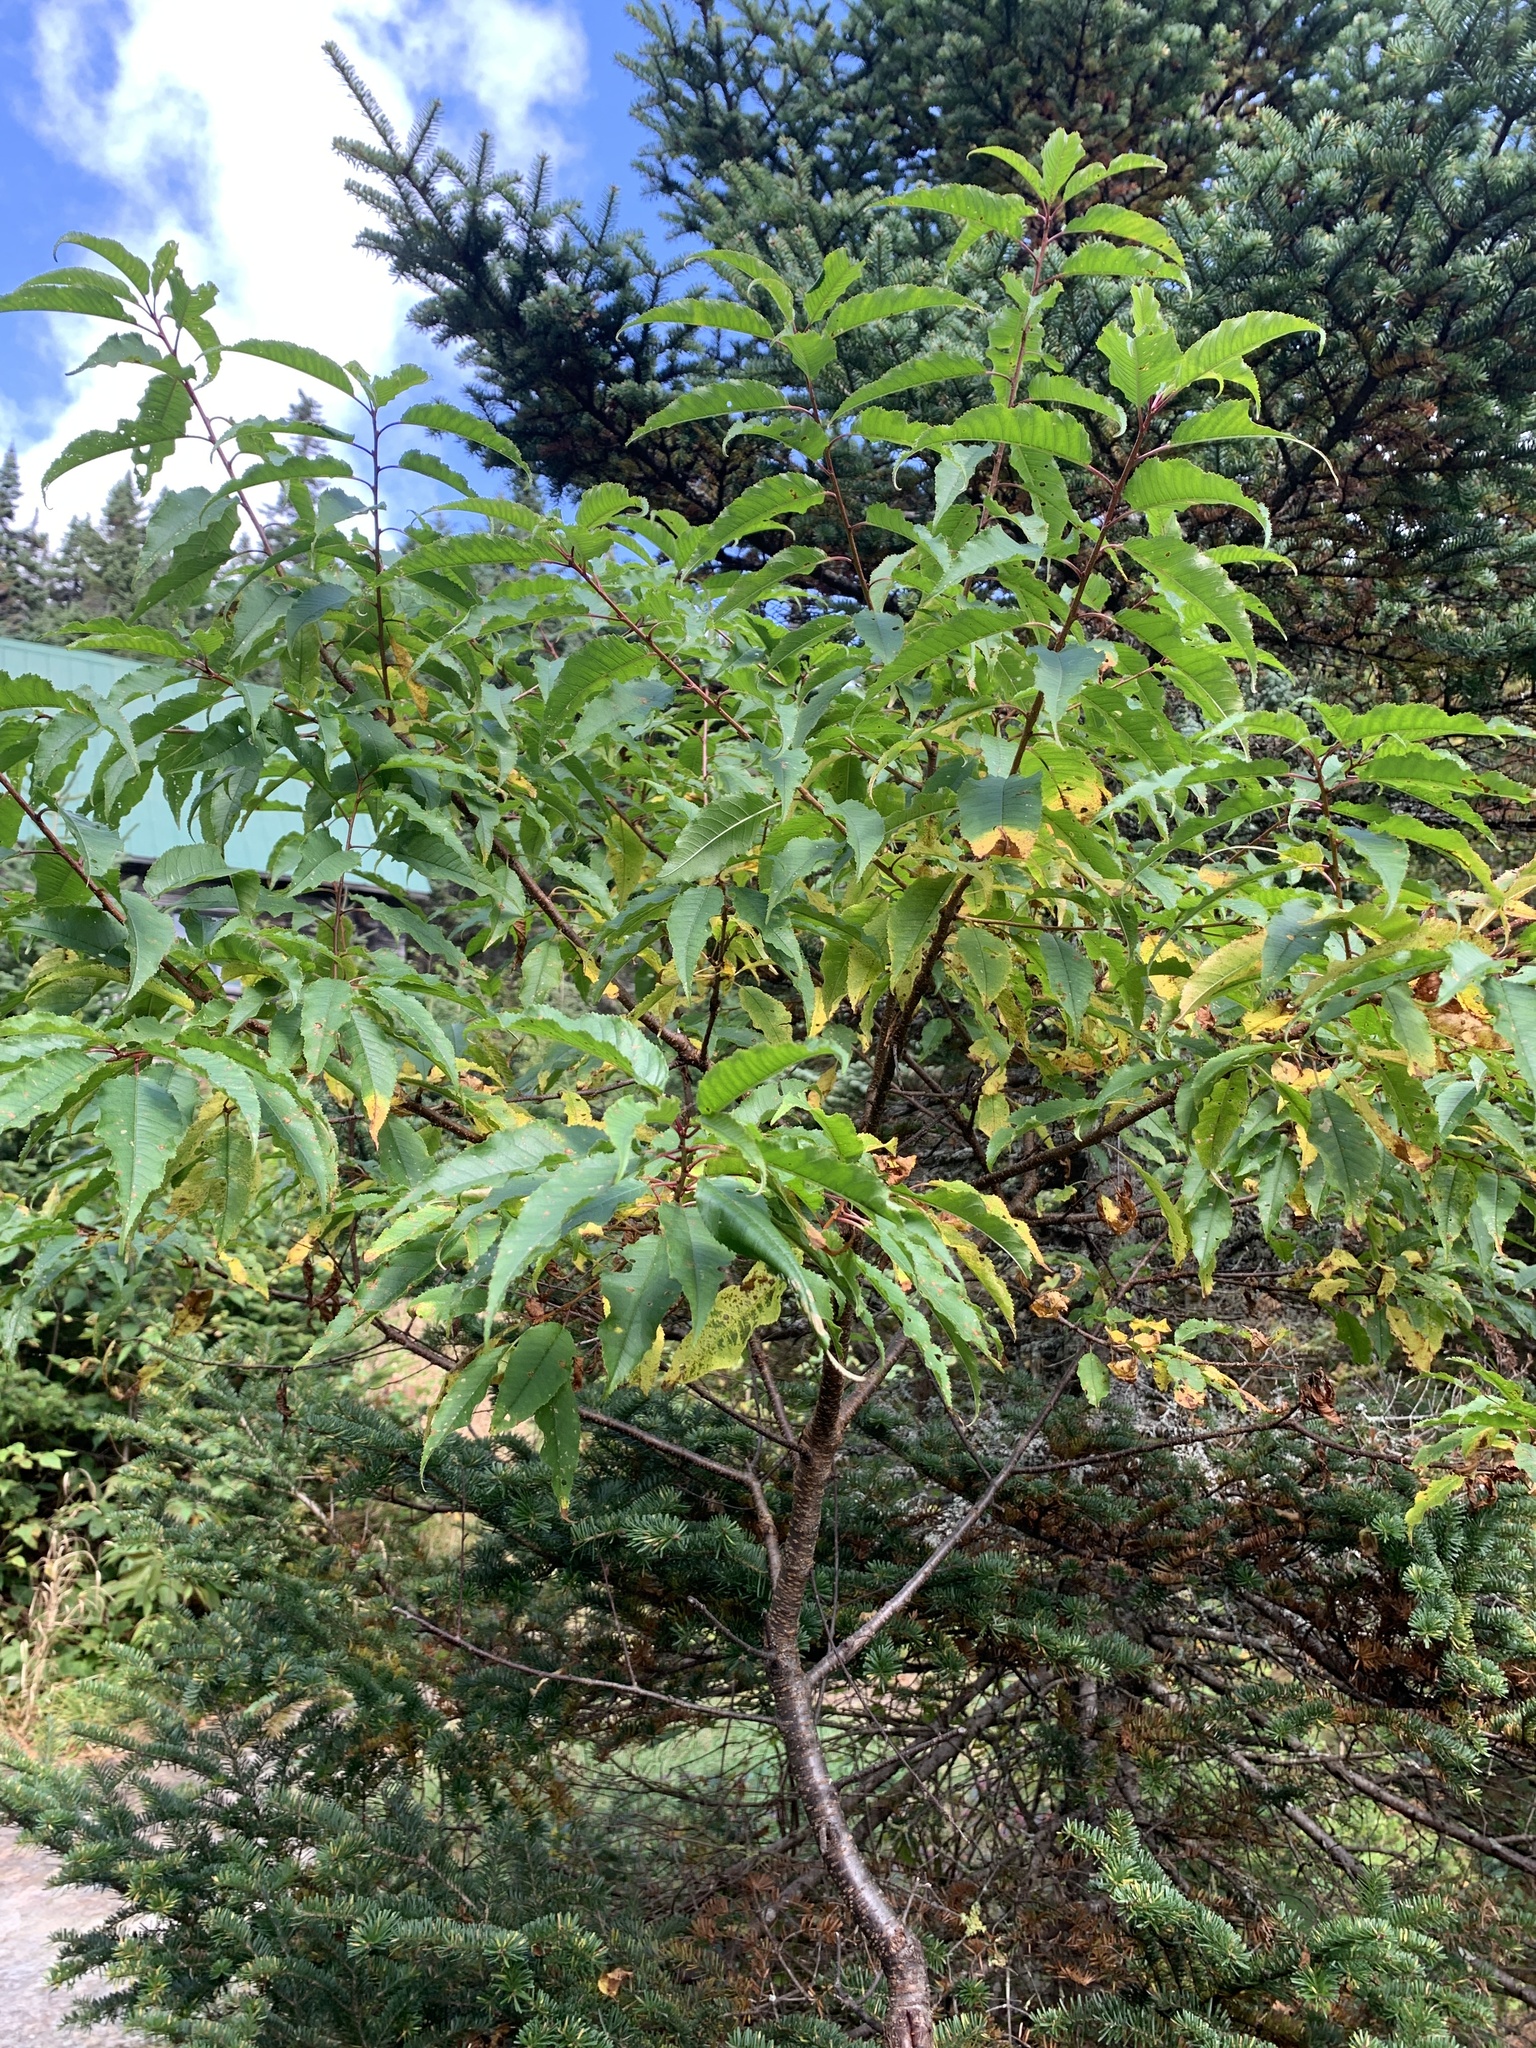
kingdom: Plantae
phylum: Tracheophyta
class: Magnoliopsida
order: Rosales
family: Rosaceae
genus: Prunus
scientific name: Prunus pensylvanica
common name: Pin cherry
